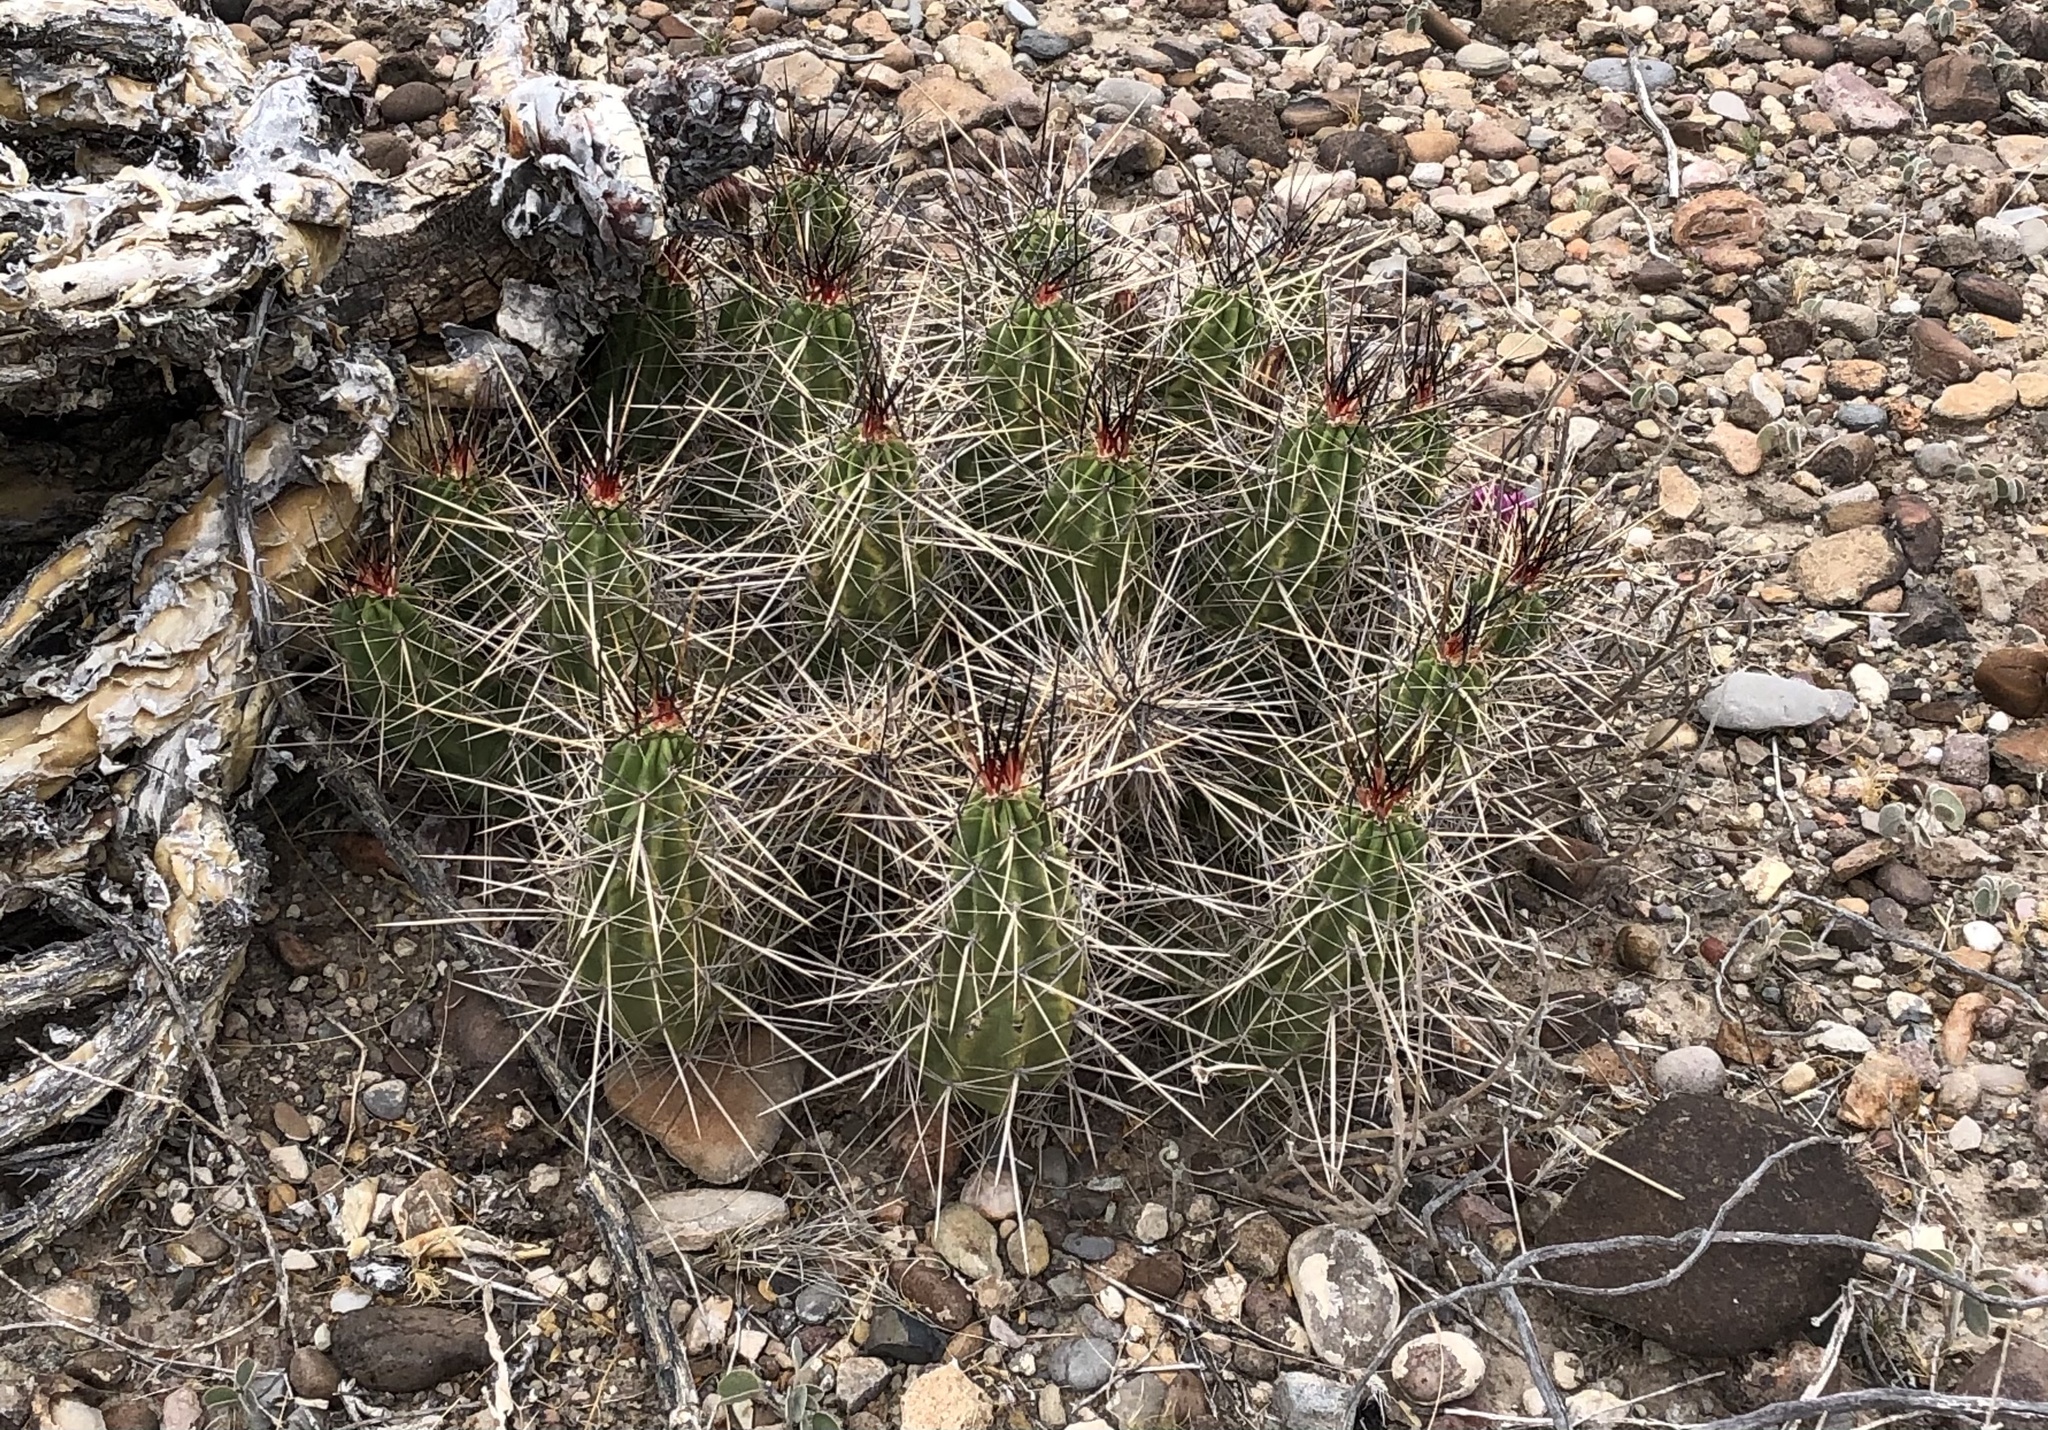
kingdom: Plantae
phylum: Tracheophyta
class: Magnoliopsida
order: Caryophyllales
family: Cactaceae
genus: Echinocereus
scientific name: Echinocereus enneacanthus
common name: Pitaya
